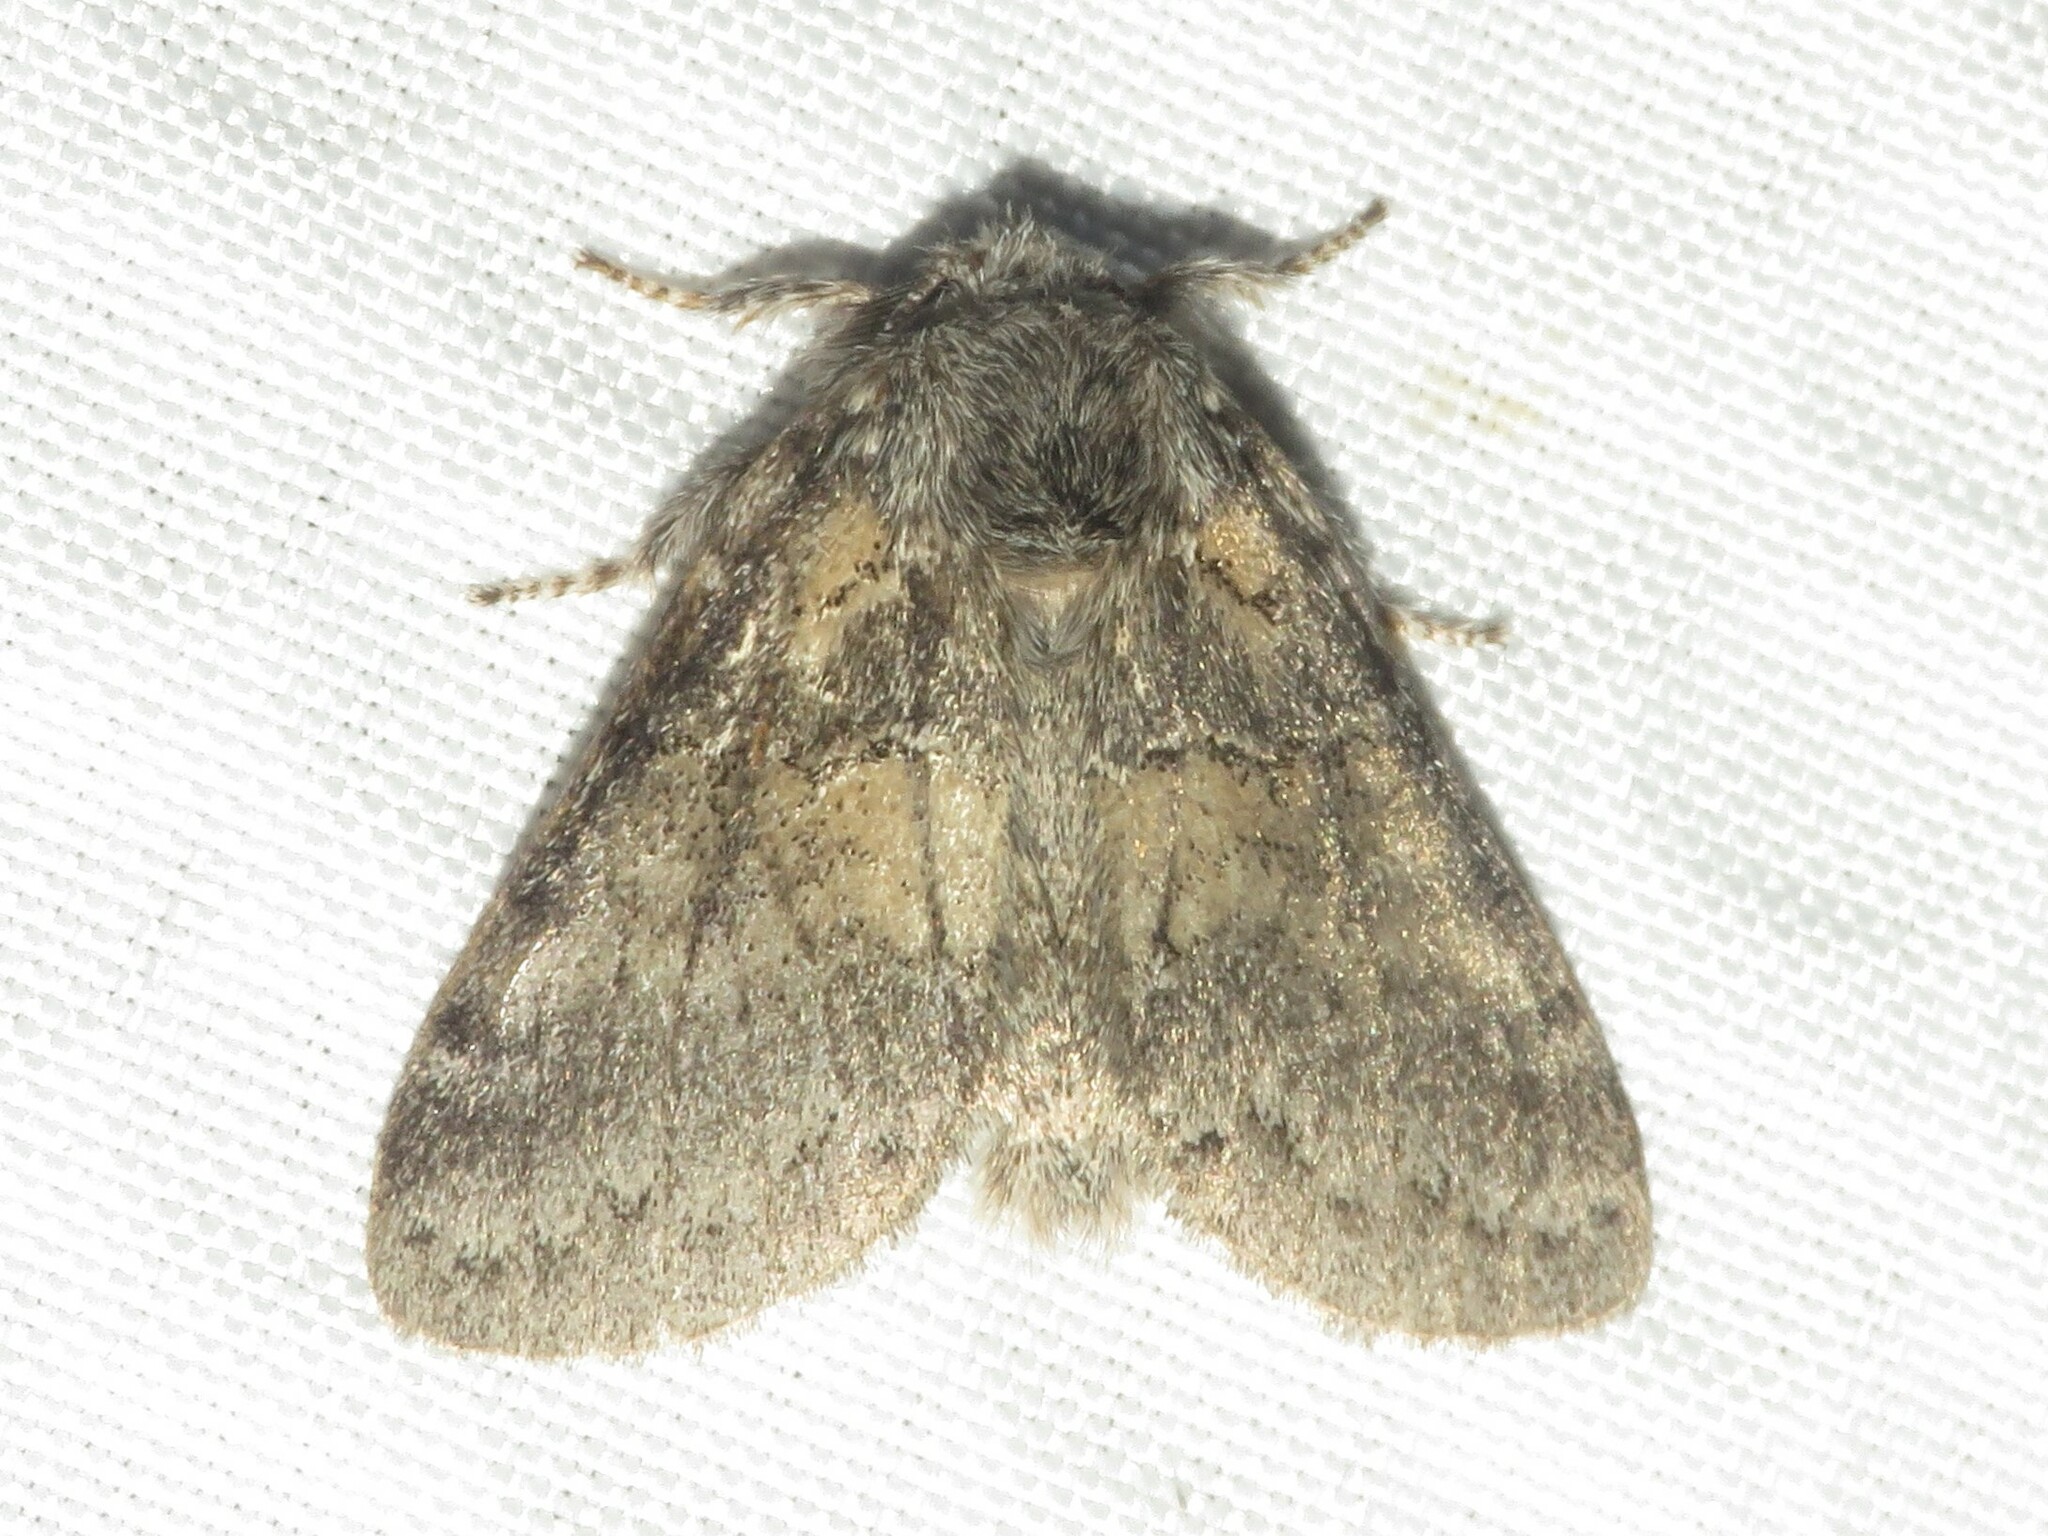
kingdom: Animalia
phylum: Arthropoda
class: Insecta
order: Lepidoptera
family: Notodontidae
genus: Gluphisia
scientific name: Gluphisia septentrionis
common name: Common gluphisia
